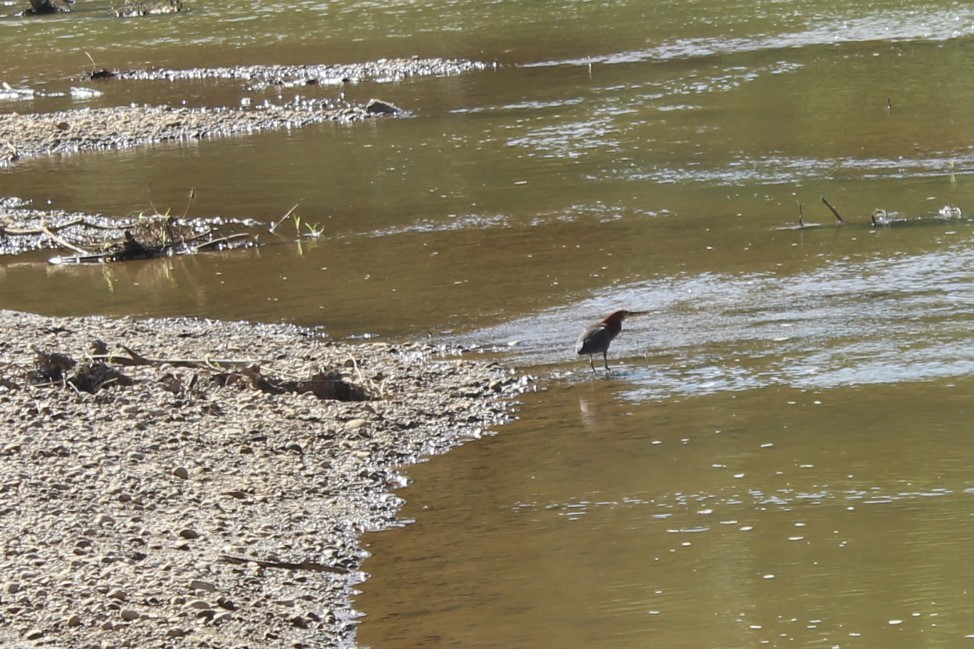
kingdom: Animalia
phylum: Chordata
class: Aves
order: Pelecaniformes
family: Ardeidae
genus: Tigrisoma
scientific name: Tigrisoma lineatum
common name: Rufescent tiger-heron
